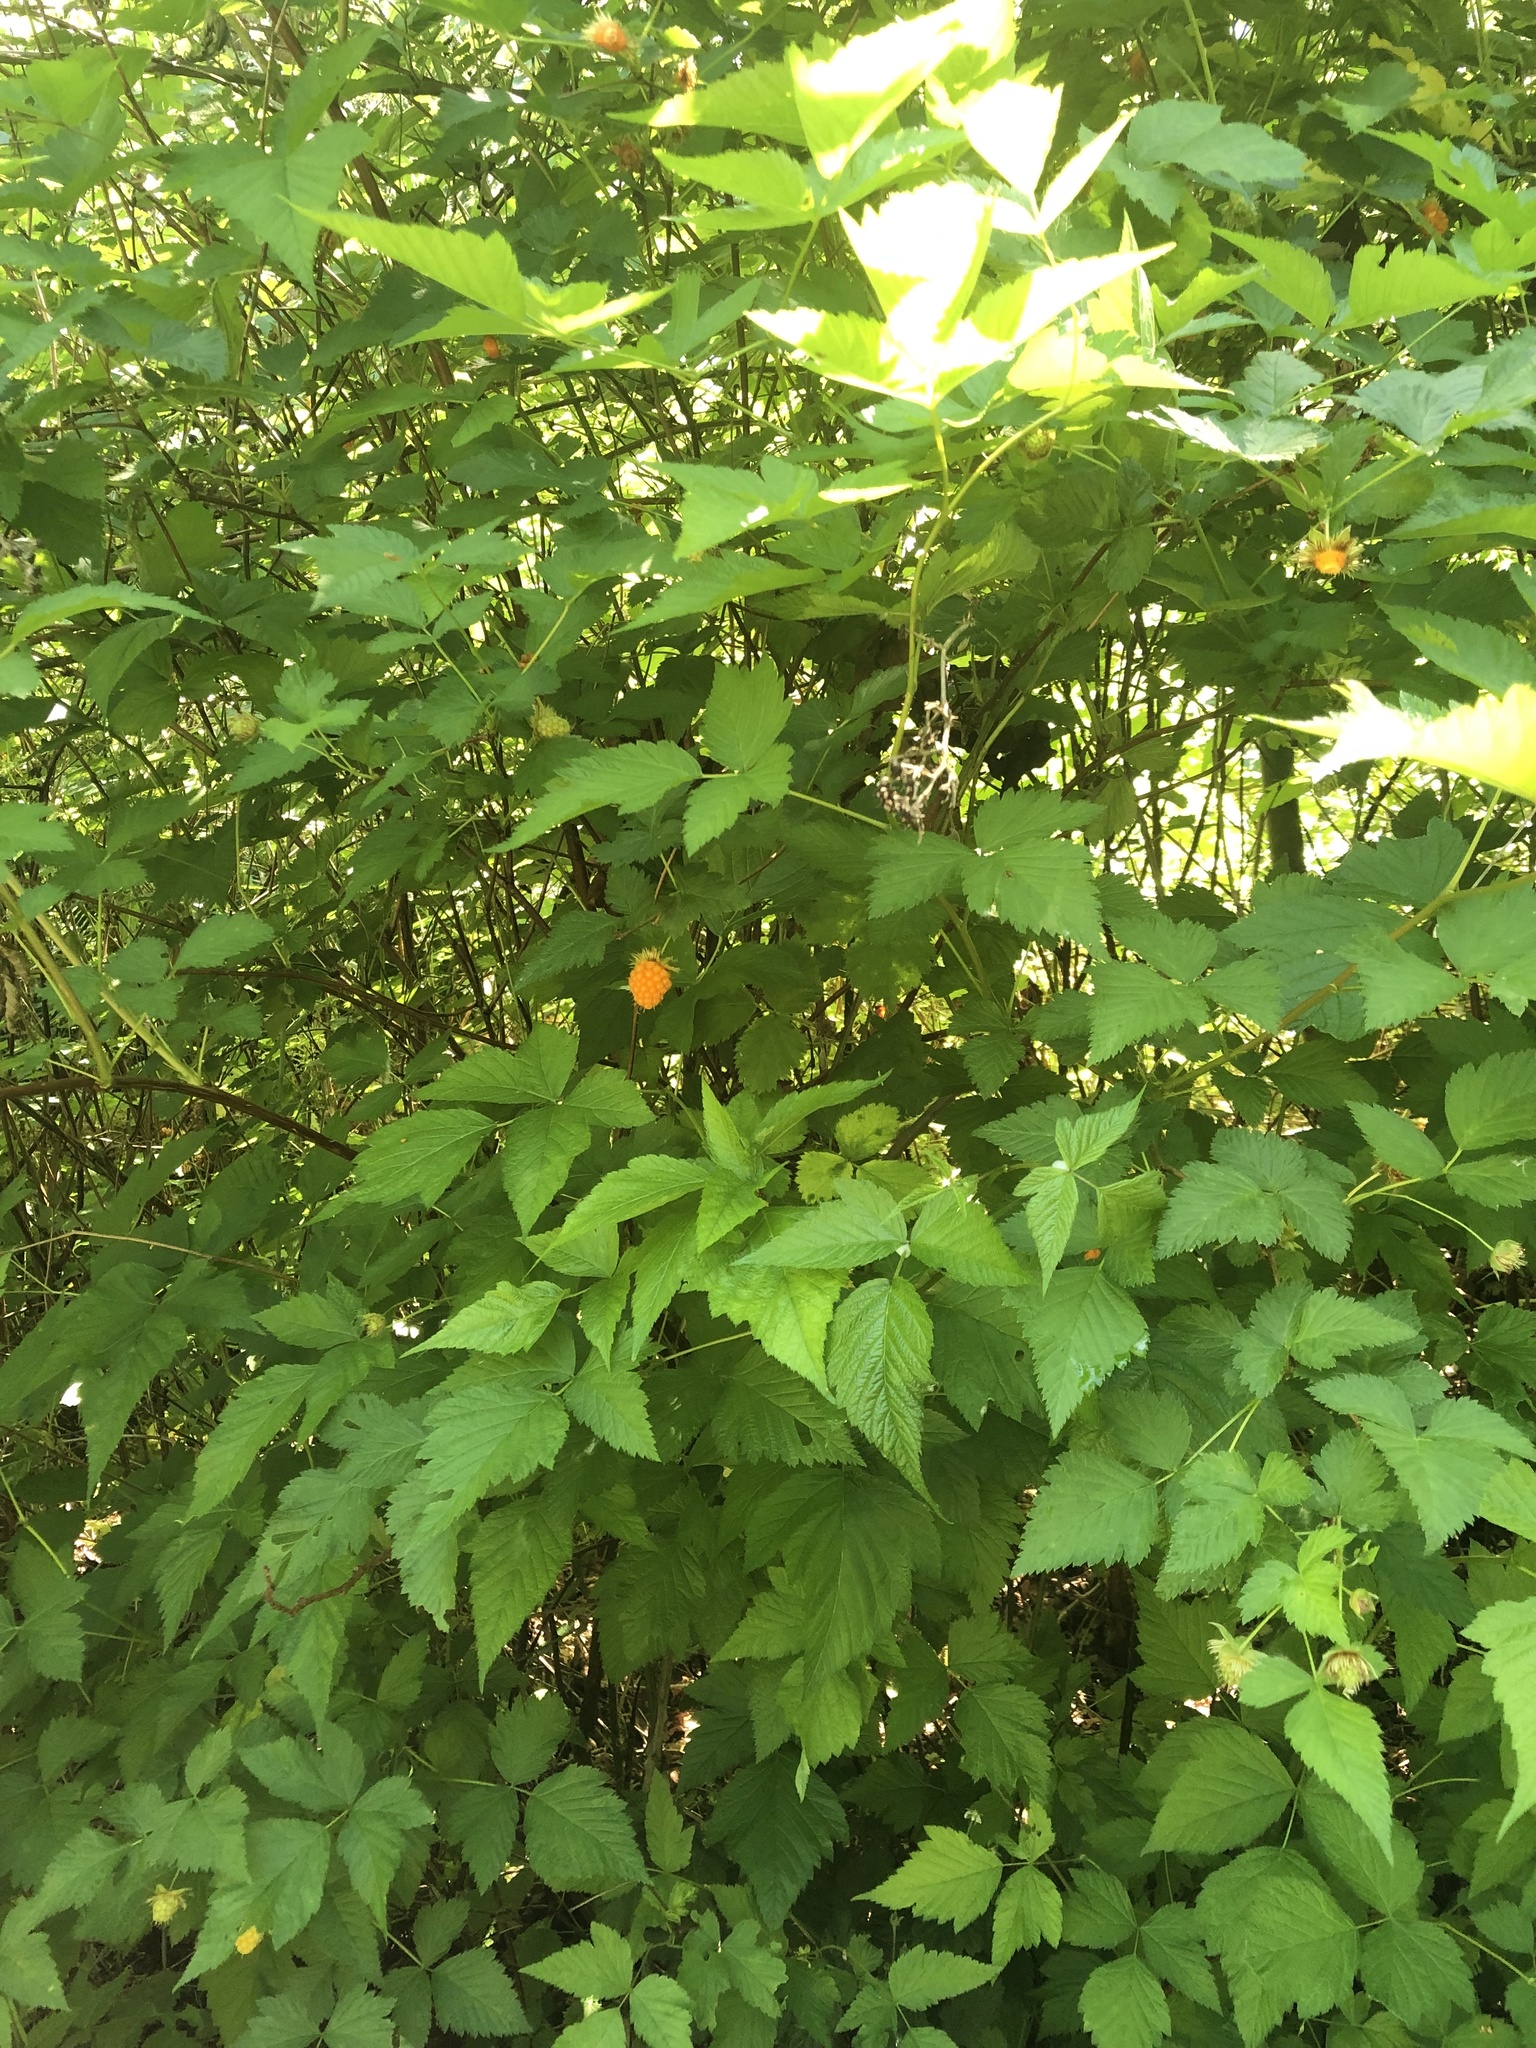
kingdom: Plantae
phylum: Tracheophyta
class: Magnoliopsida
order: Rosales
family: Rosaceae
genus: Rubus
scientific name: Rubus spectabilis
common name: Salmonberry
